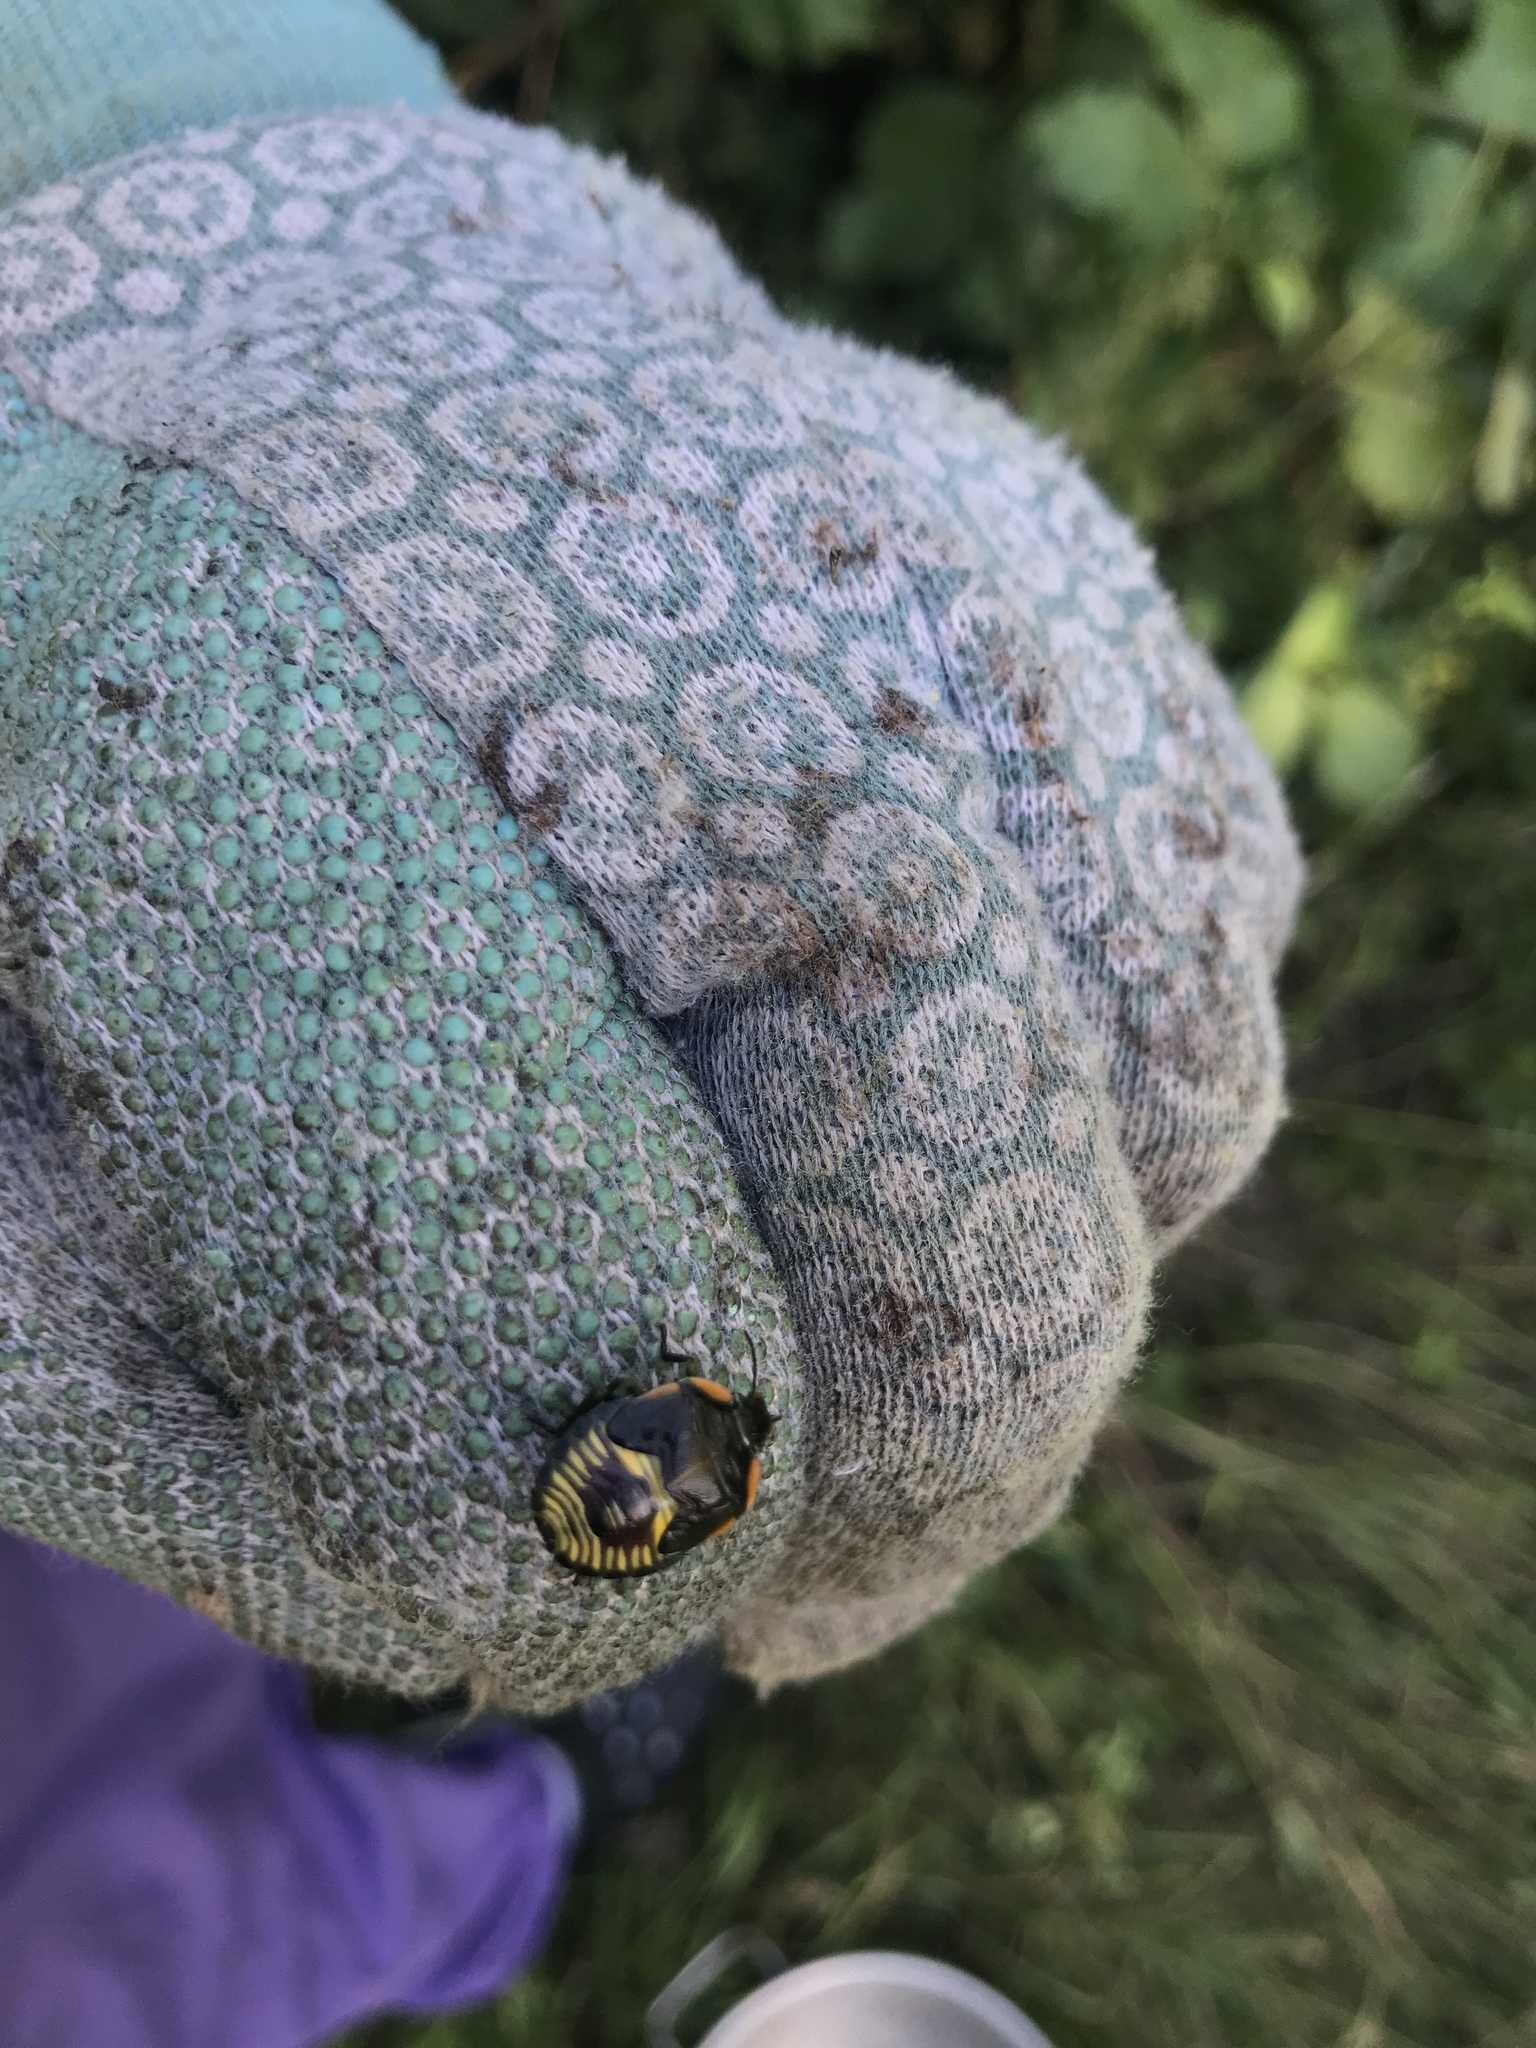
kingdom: Animalia
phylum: Arthropoda
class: Insecta
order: Hemiptera
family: Pentatomidae
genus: Chinavia
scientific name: Chinavia hilaris
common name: Green stink bug
